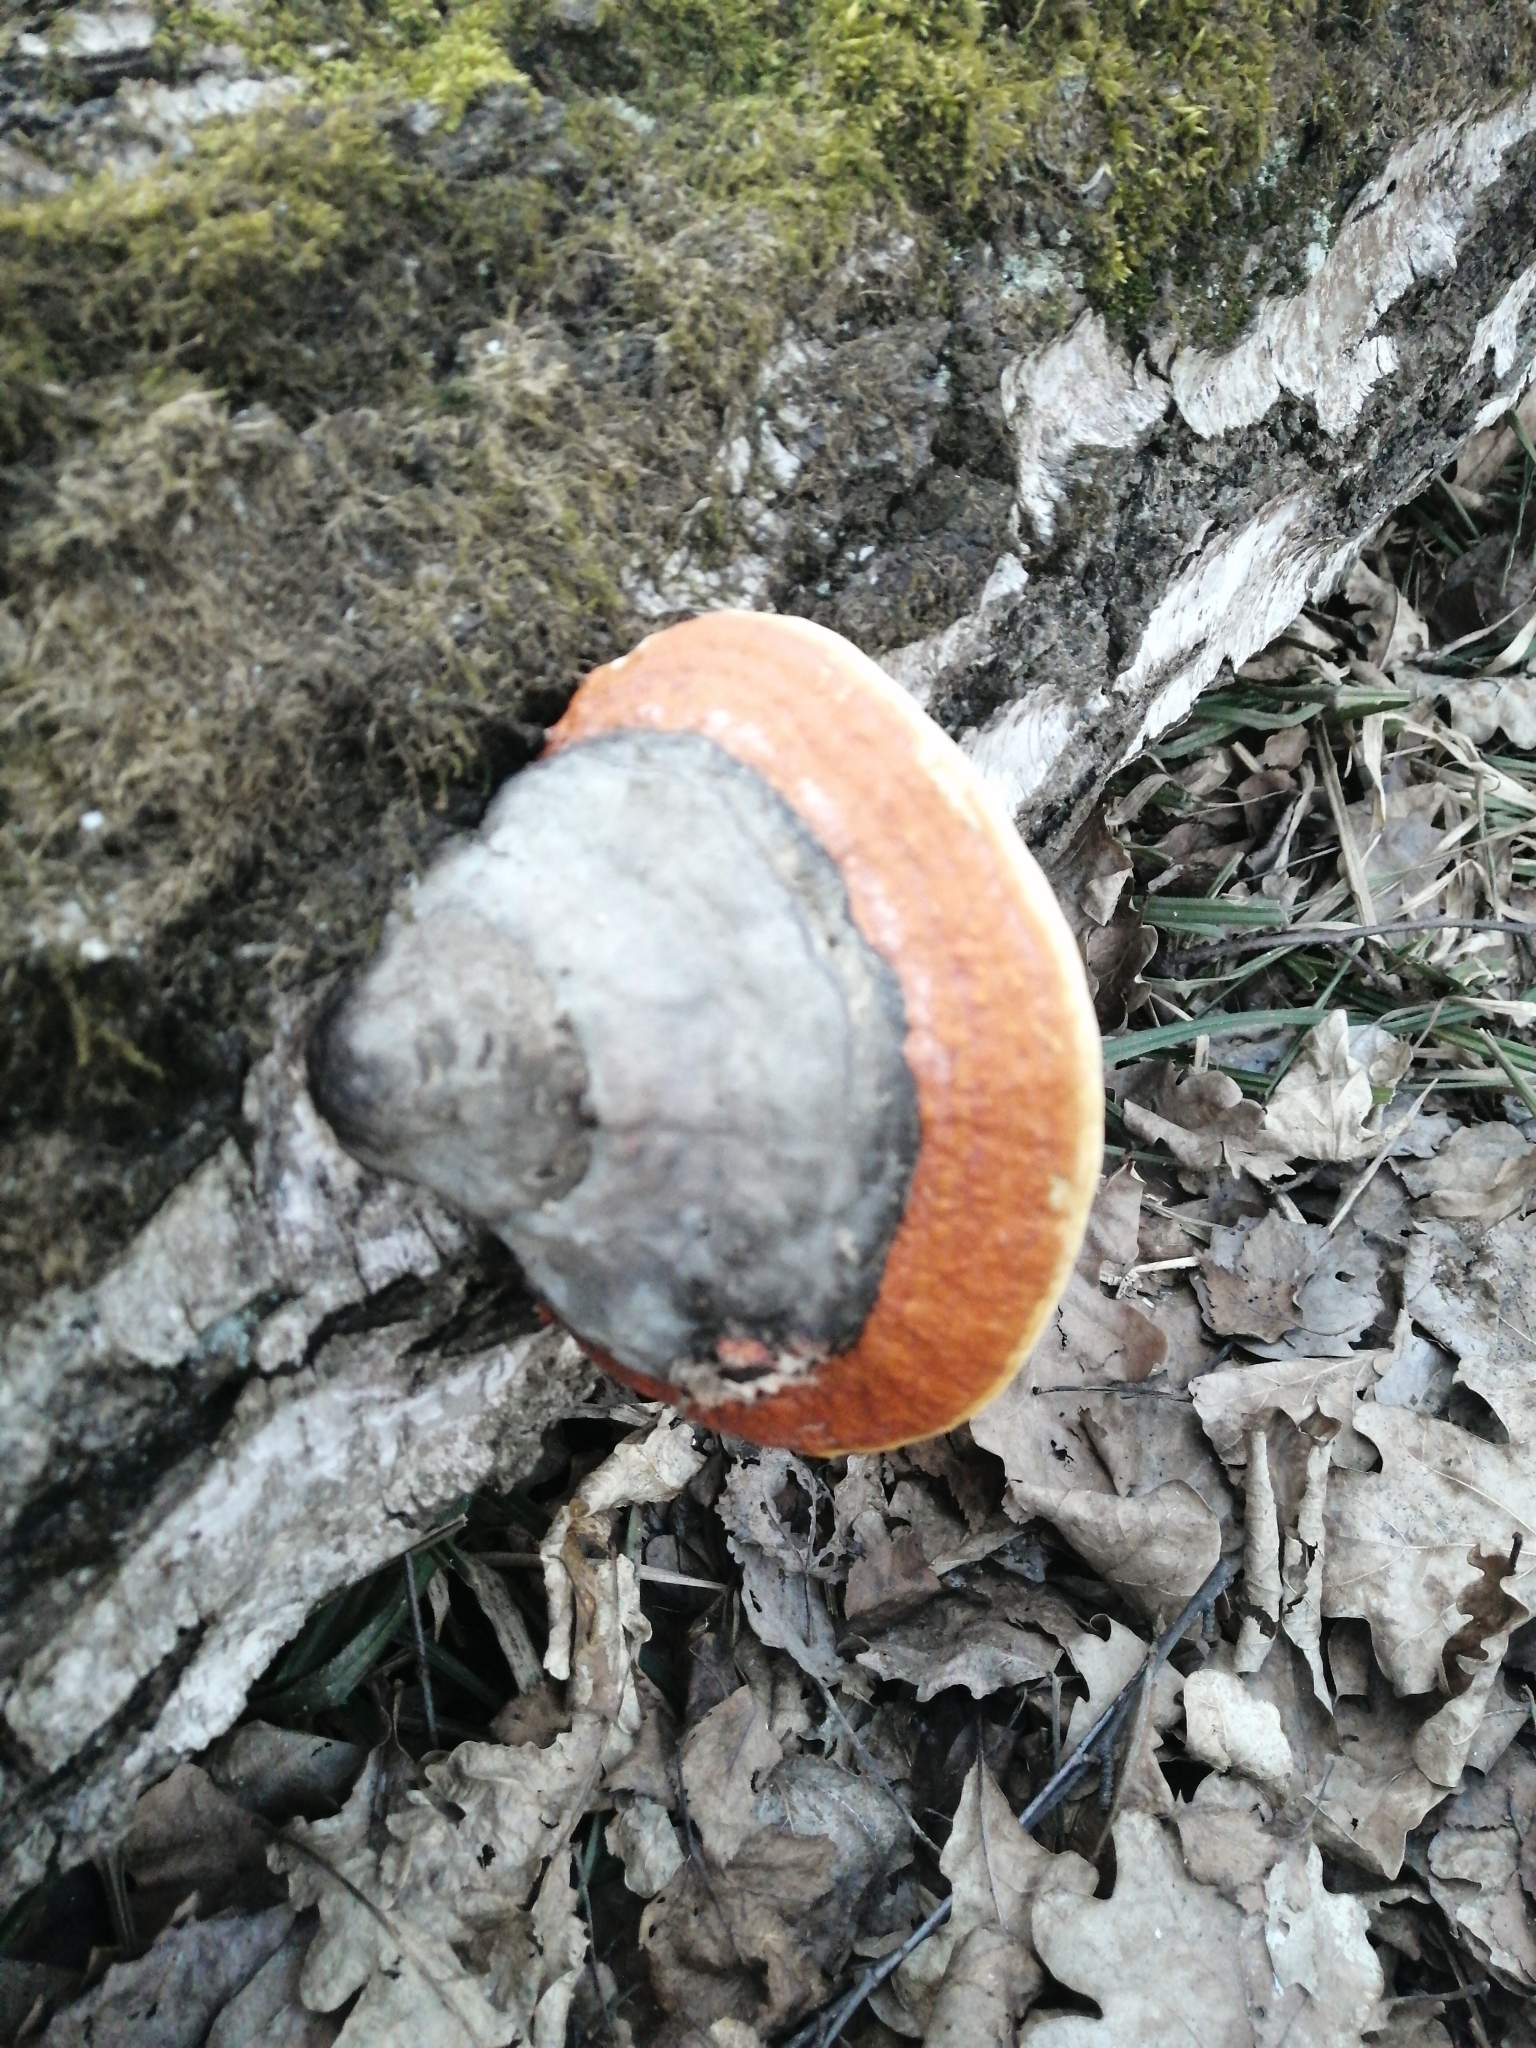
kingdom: Fungi
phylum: Basidiomycota
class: Agaricomycetes
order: Polyporales
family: Fomitopsidaceae
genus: Fomitopsis
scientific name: Fomitopsis pinicola
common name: Red-belted bracket
